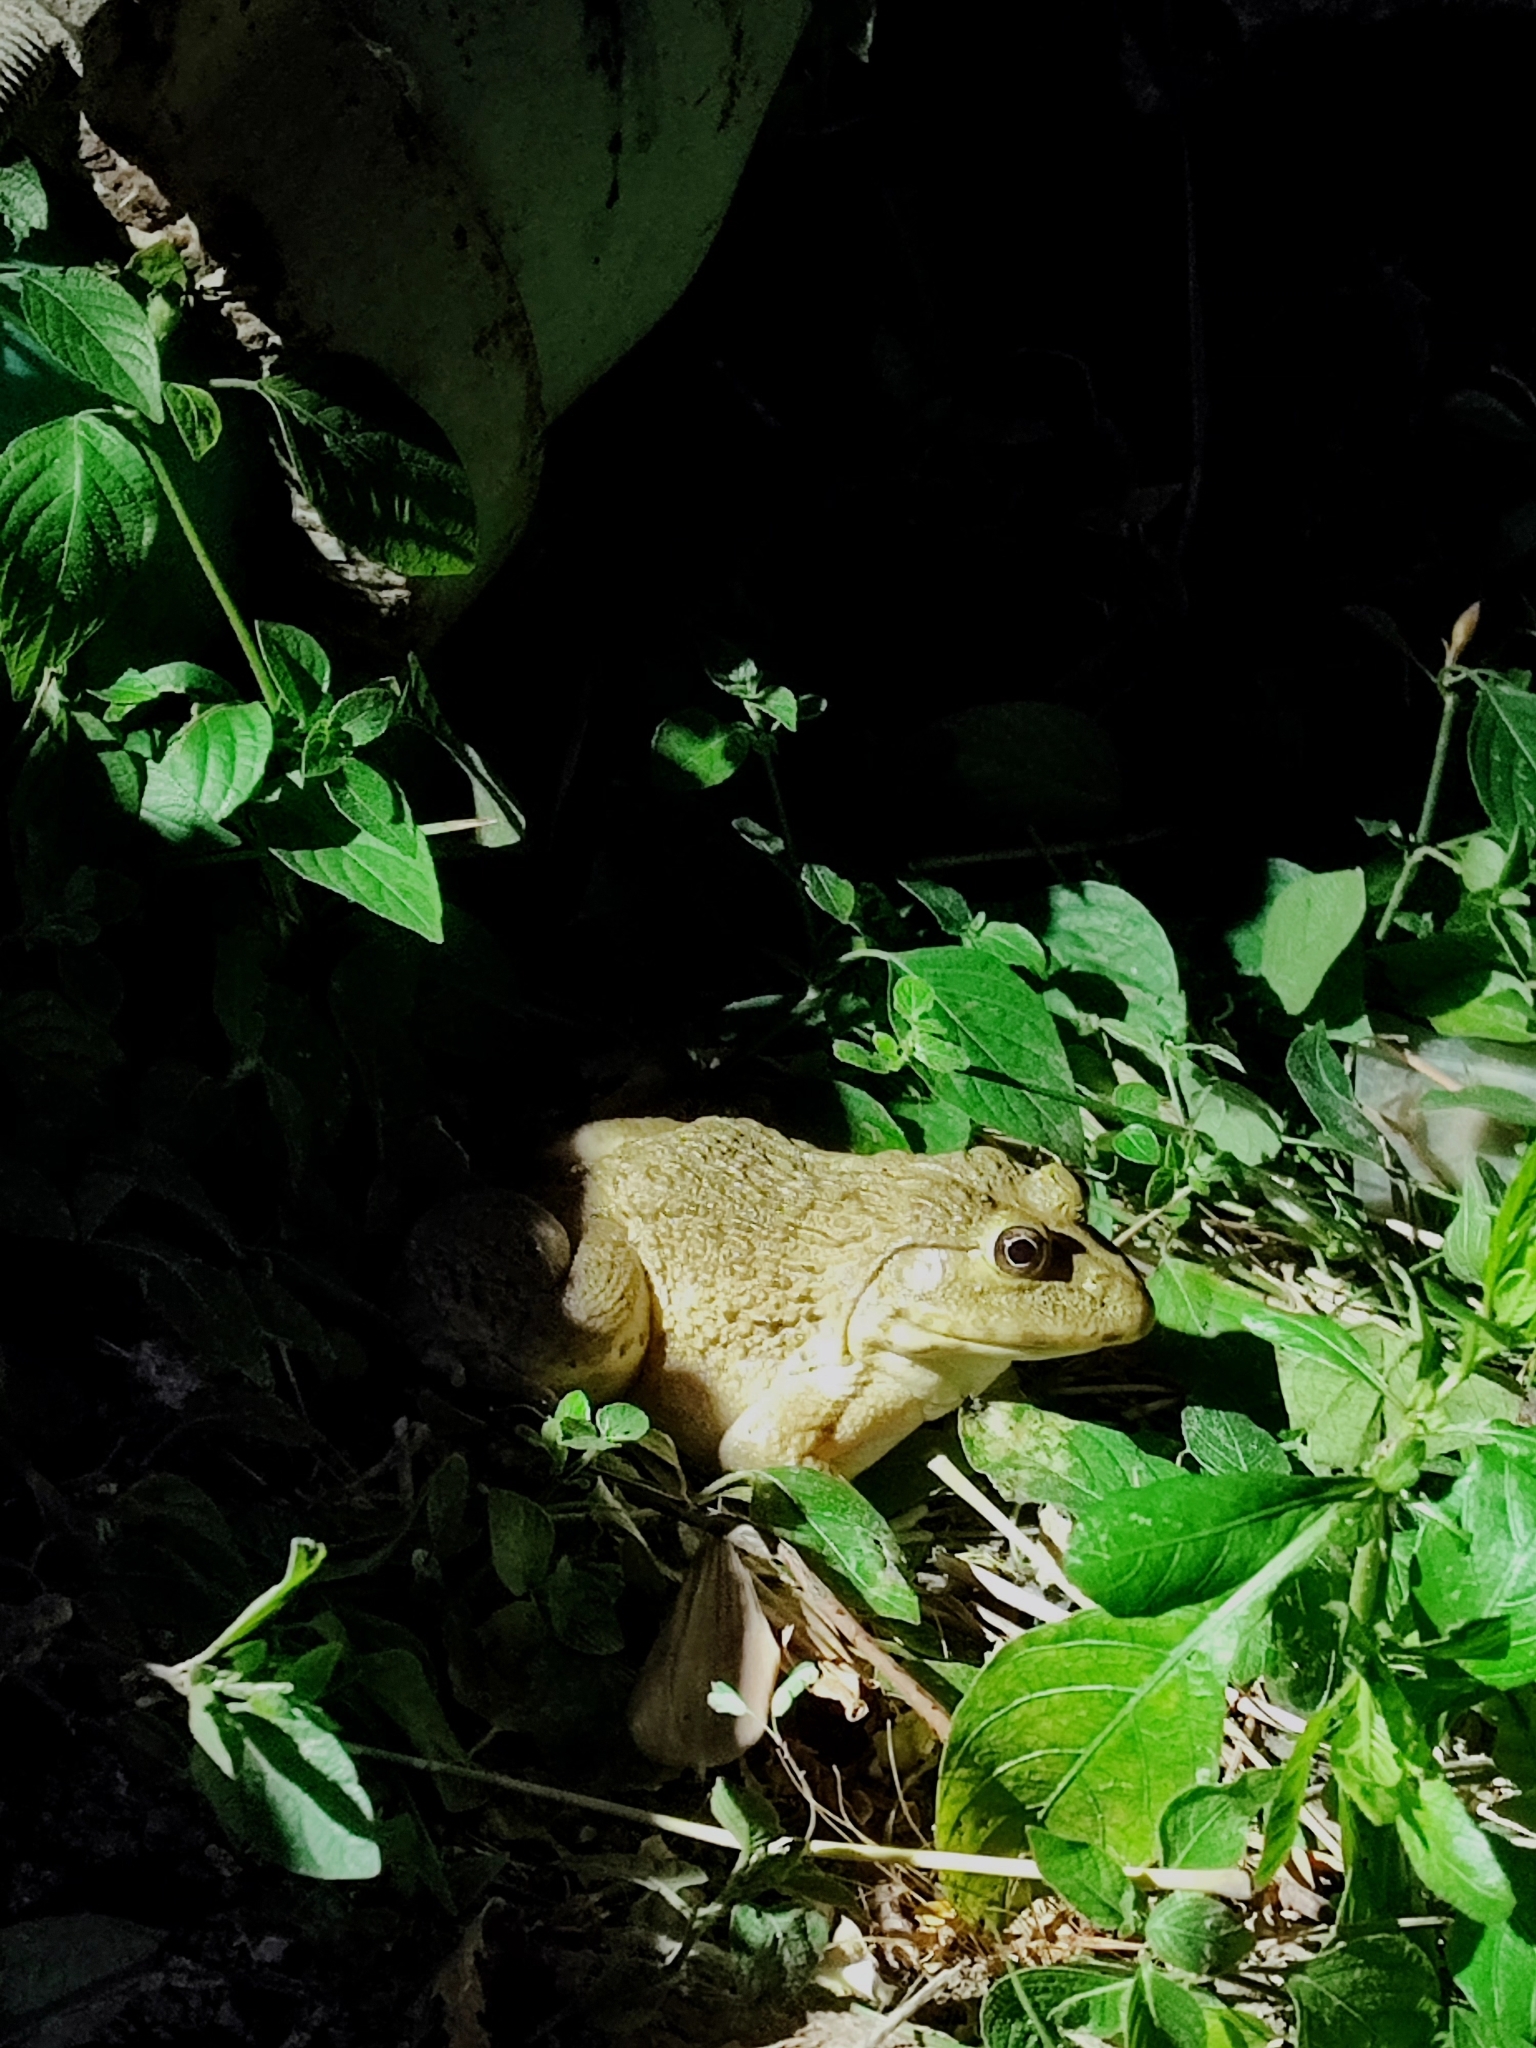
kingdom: Animalia
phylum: Chordata
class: Amphibia
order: Anura
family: Dicroglossidae
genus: Hoplobatrachus
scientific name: Hoplobatrachus rugulosus
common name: Chinese edible frog
